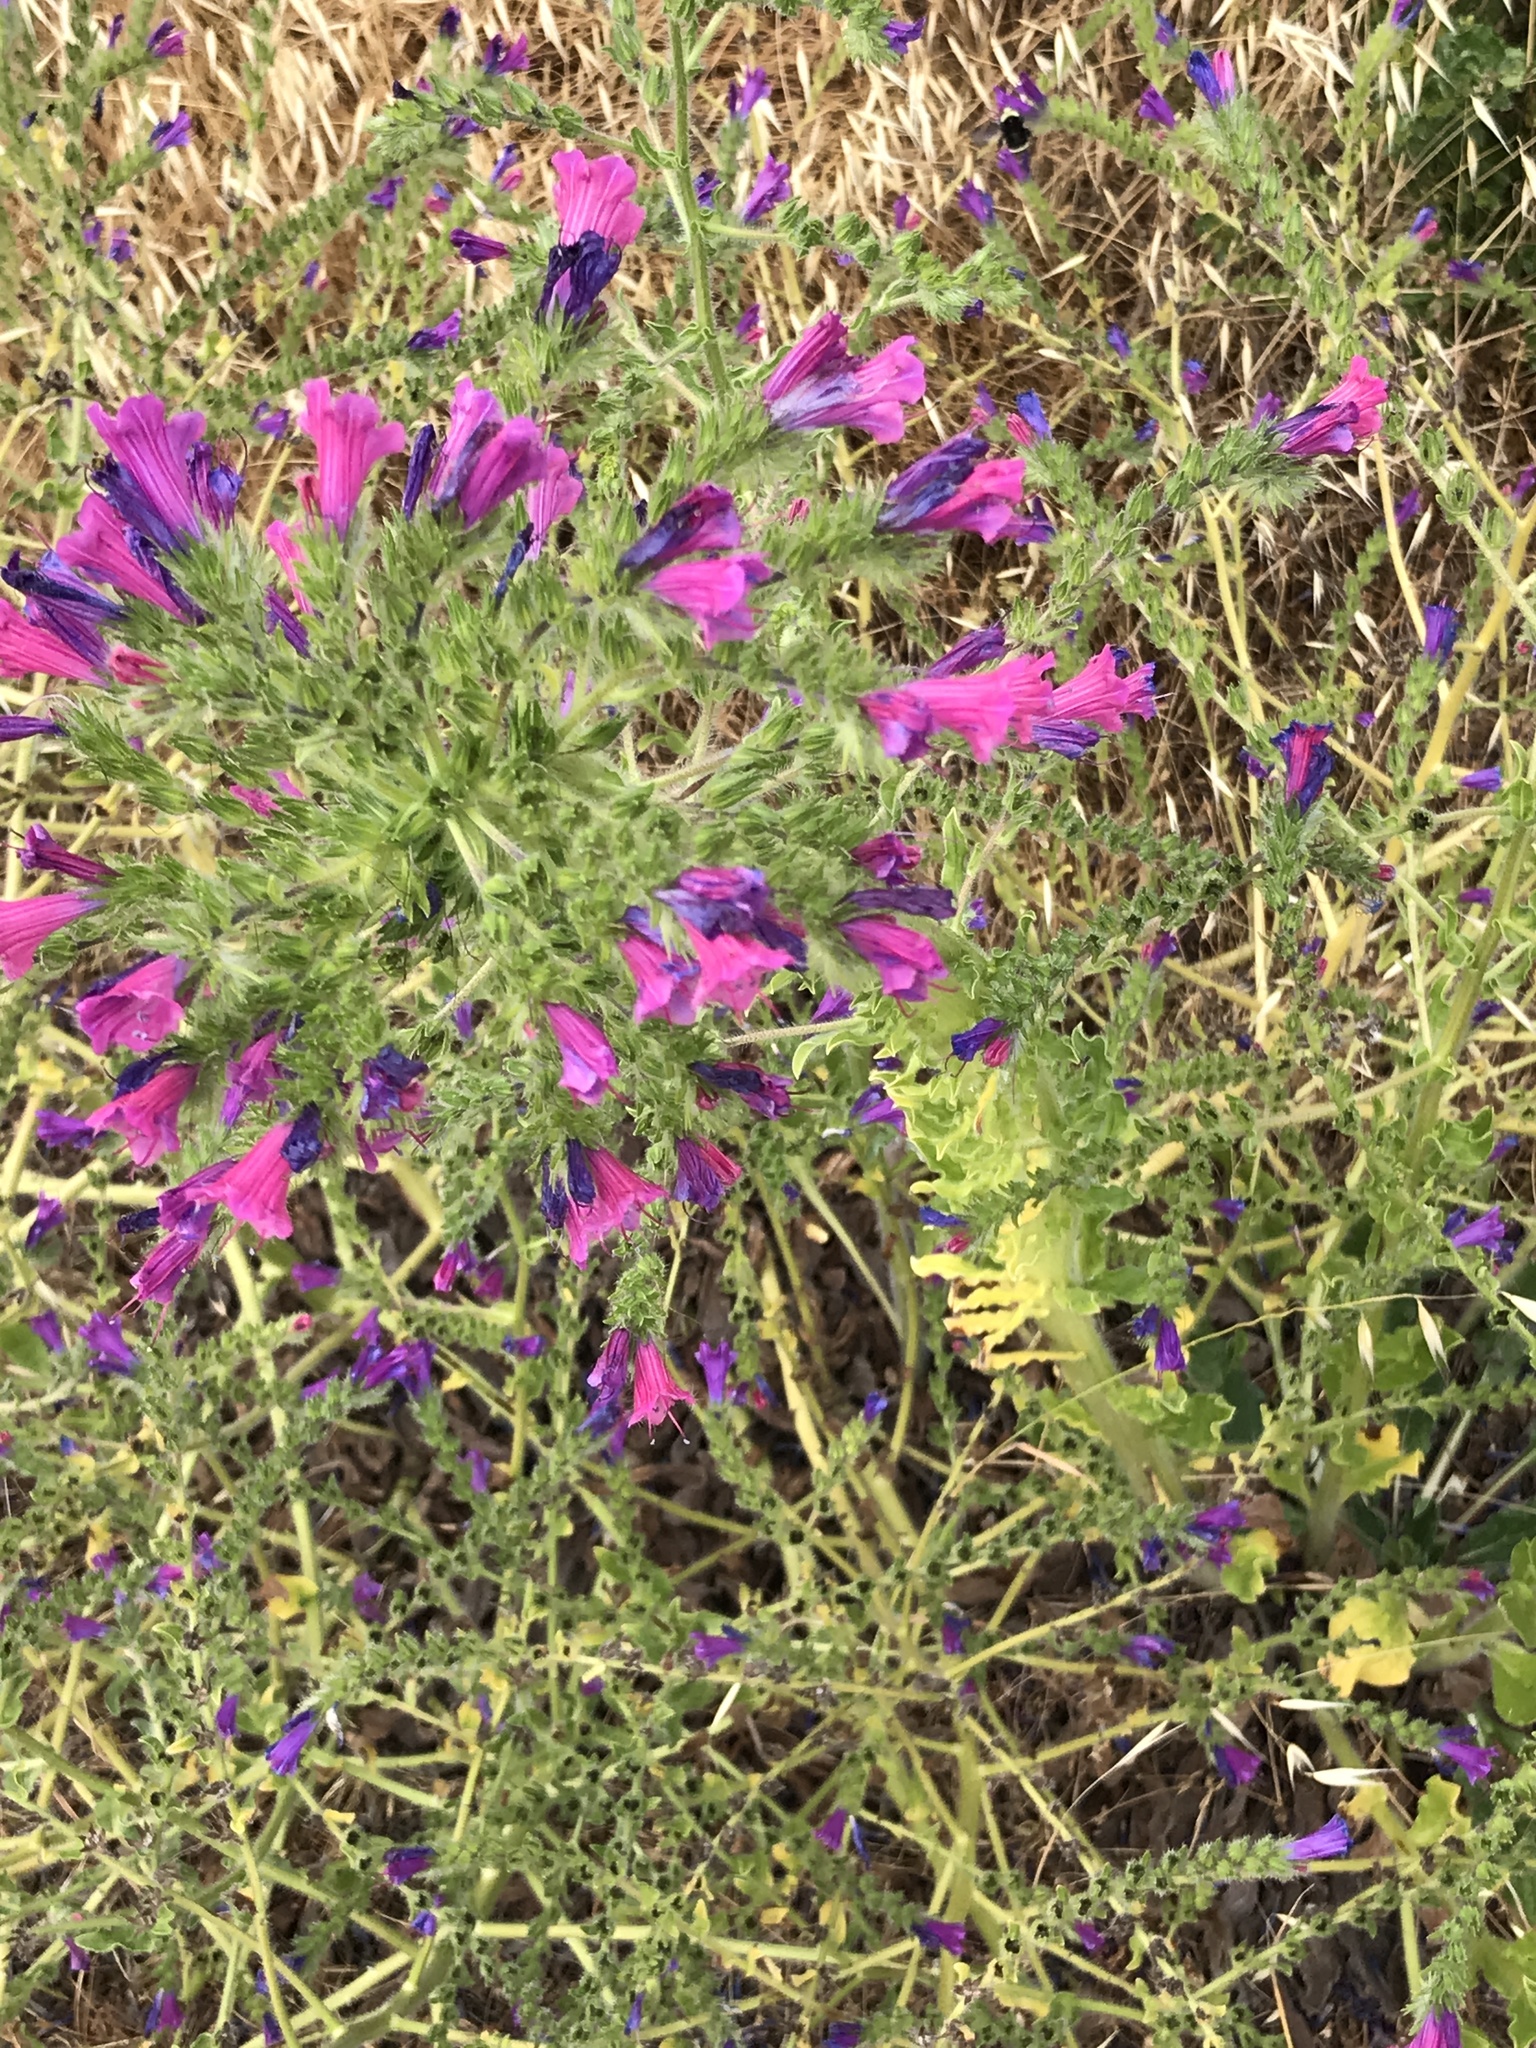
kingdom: Plantae
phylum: Tracheophyta
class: Magnoliopsida
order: Boraginales
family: Boraginaceae
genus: Echium
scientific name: Echium plantagineum
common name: Purple viper's-bugloss
